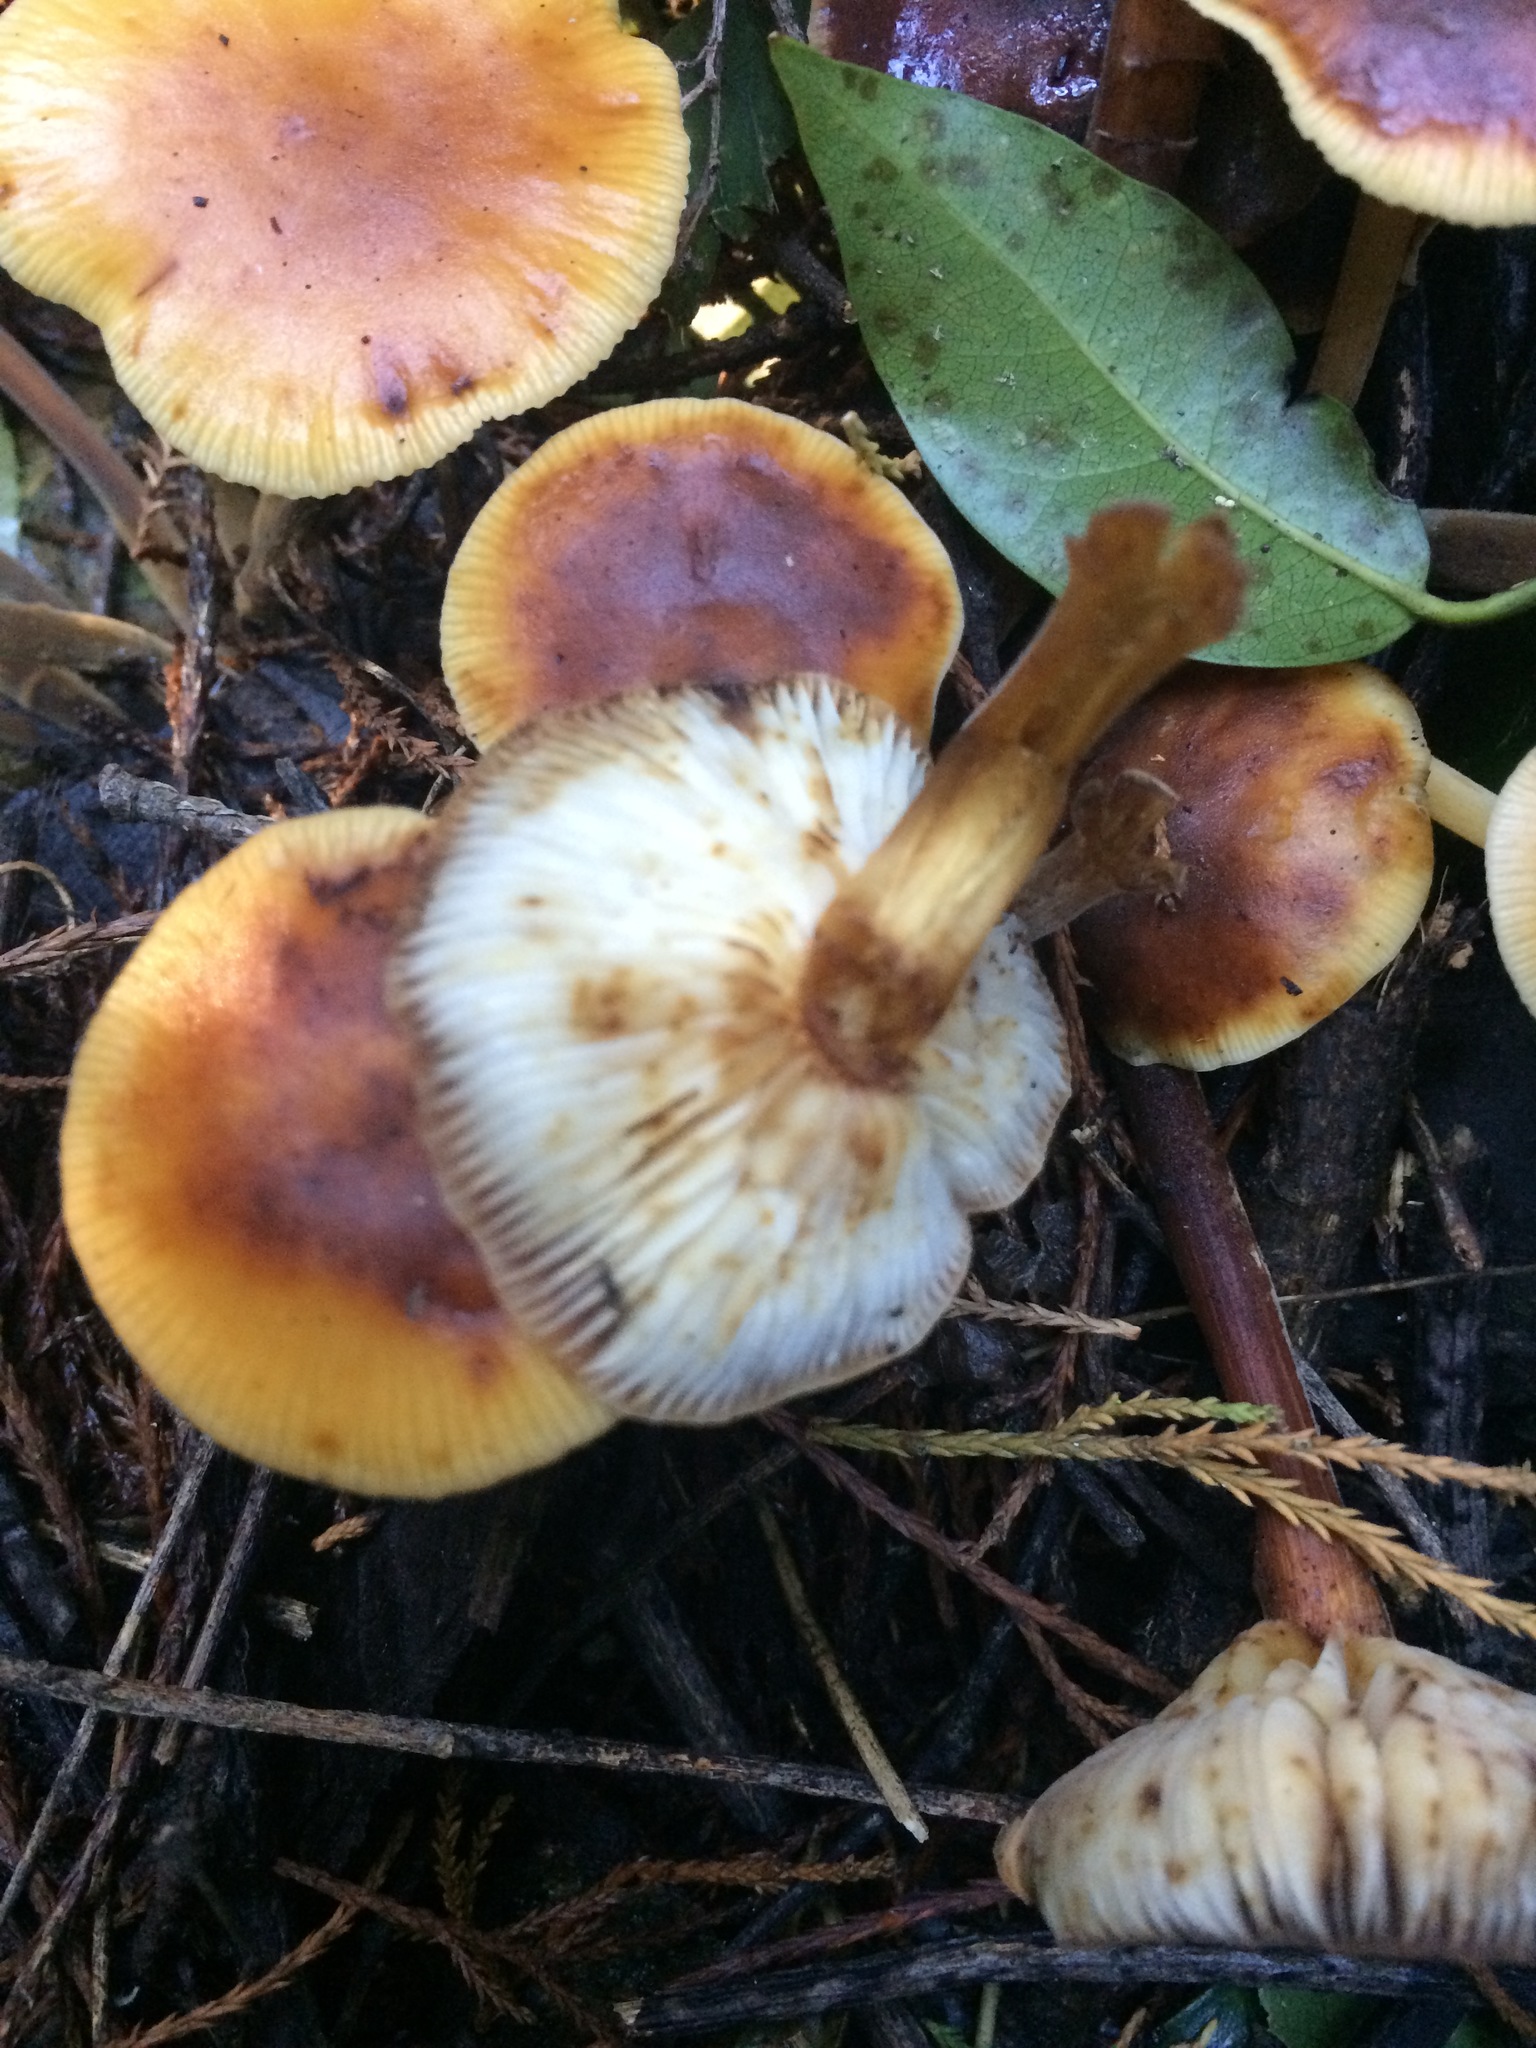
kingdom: Fungi
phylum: Basidiomycota
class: Agaricomycetes
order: Agaricales
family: Physalacriaceae
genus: Flammulina
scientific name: Flammulina velutipes
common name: Velvet shank
